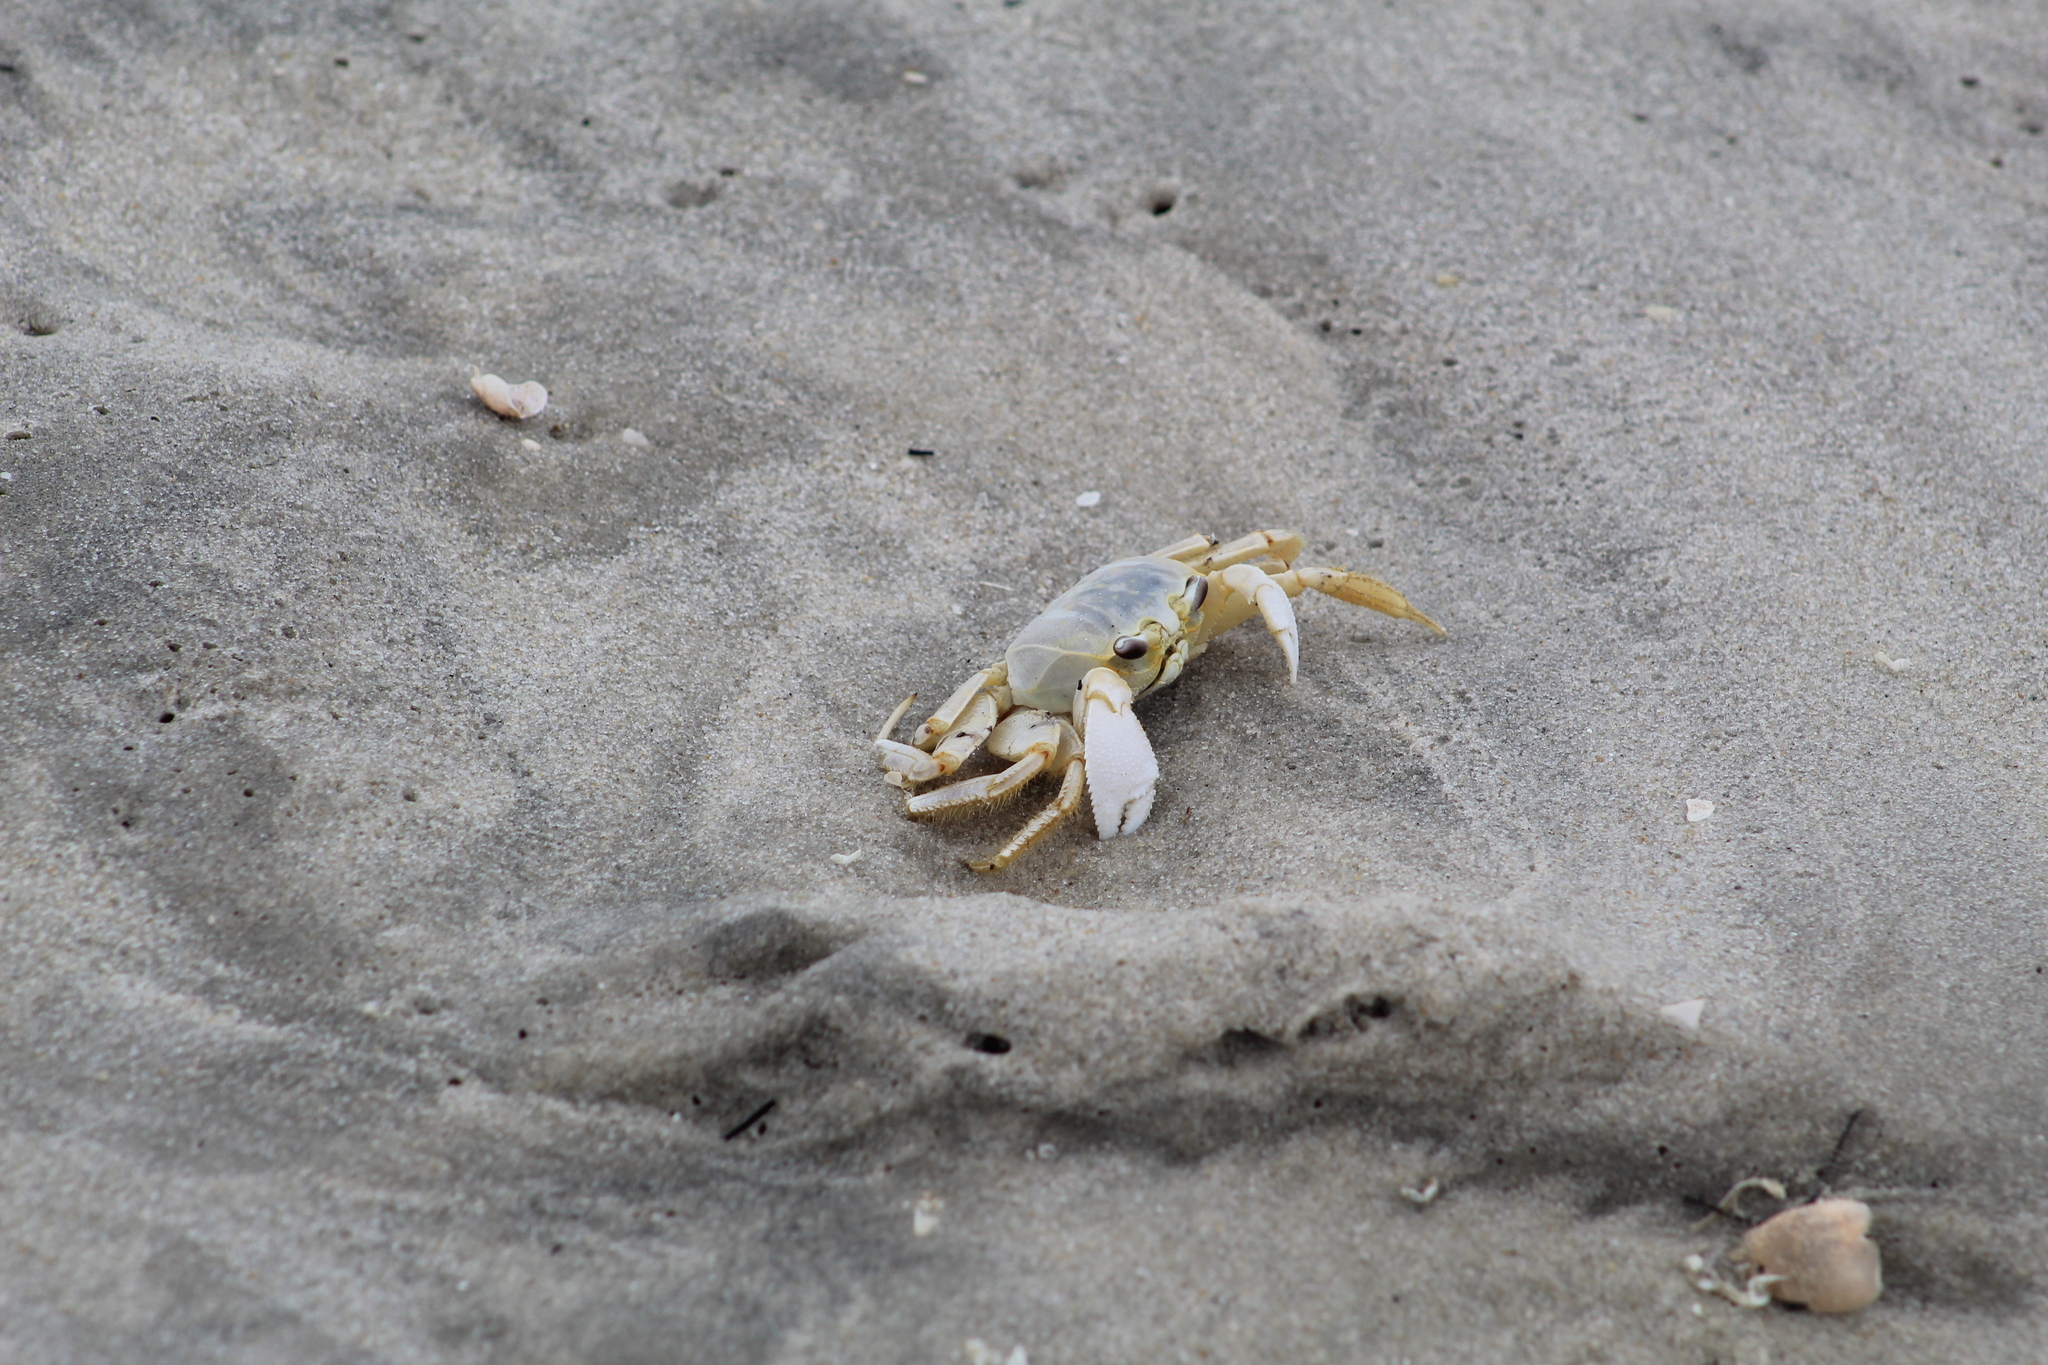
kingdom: Animalia
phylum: Arthropoda
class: Malacostraca
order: Decapoda
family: Ocypodidae
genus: Ocypode
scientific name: Ocypode quadrata
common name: Ghost crab
